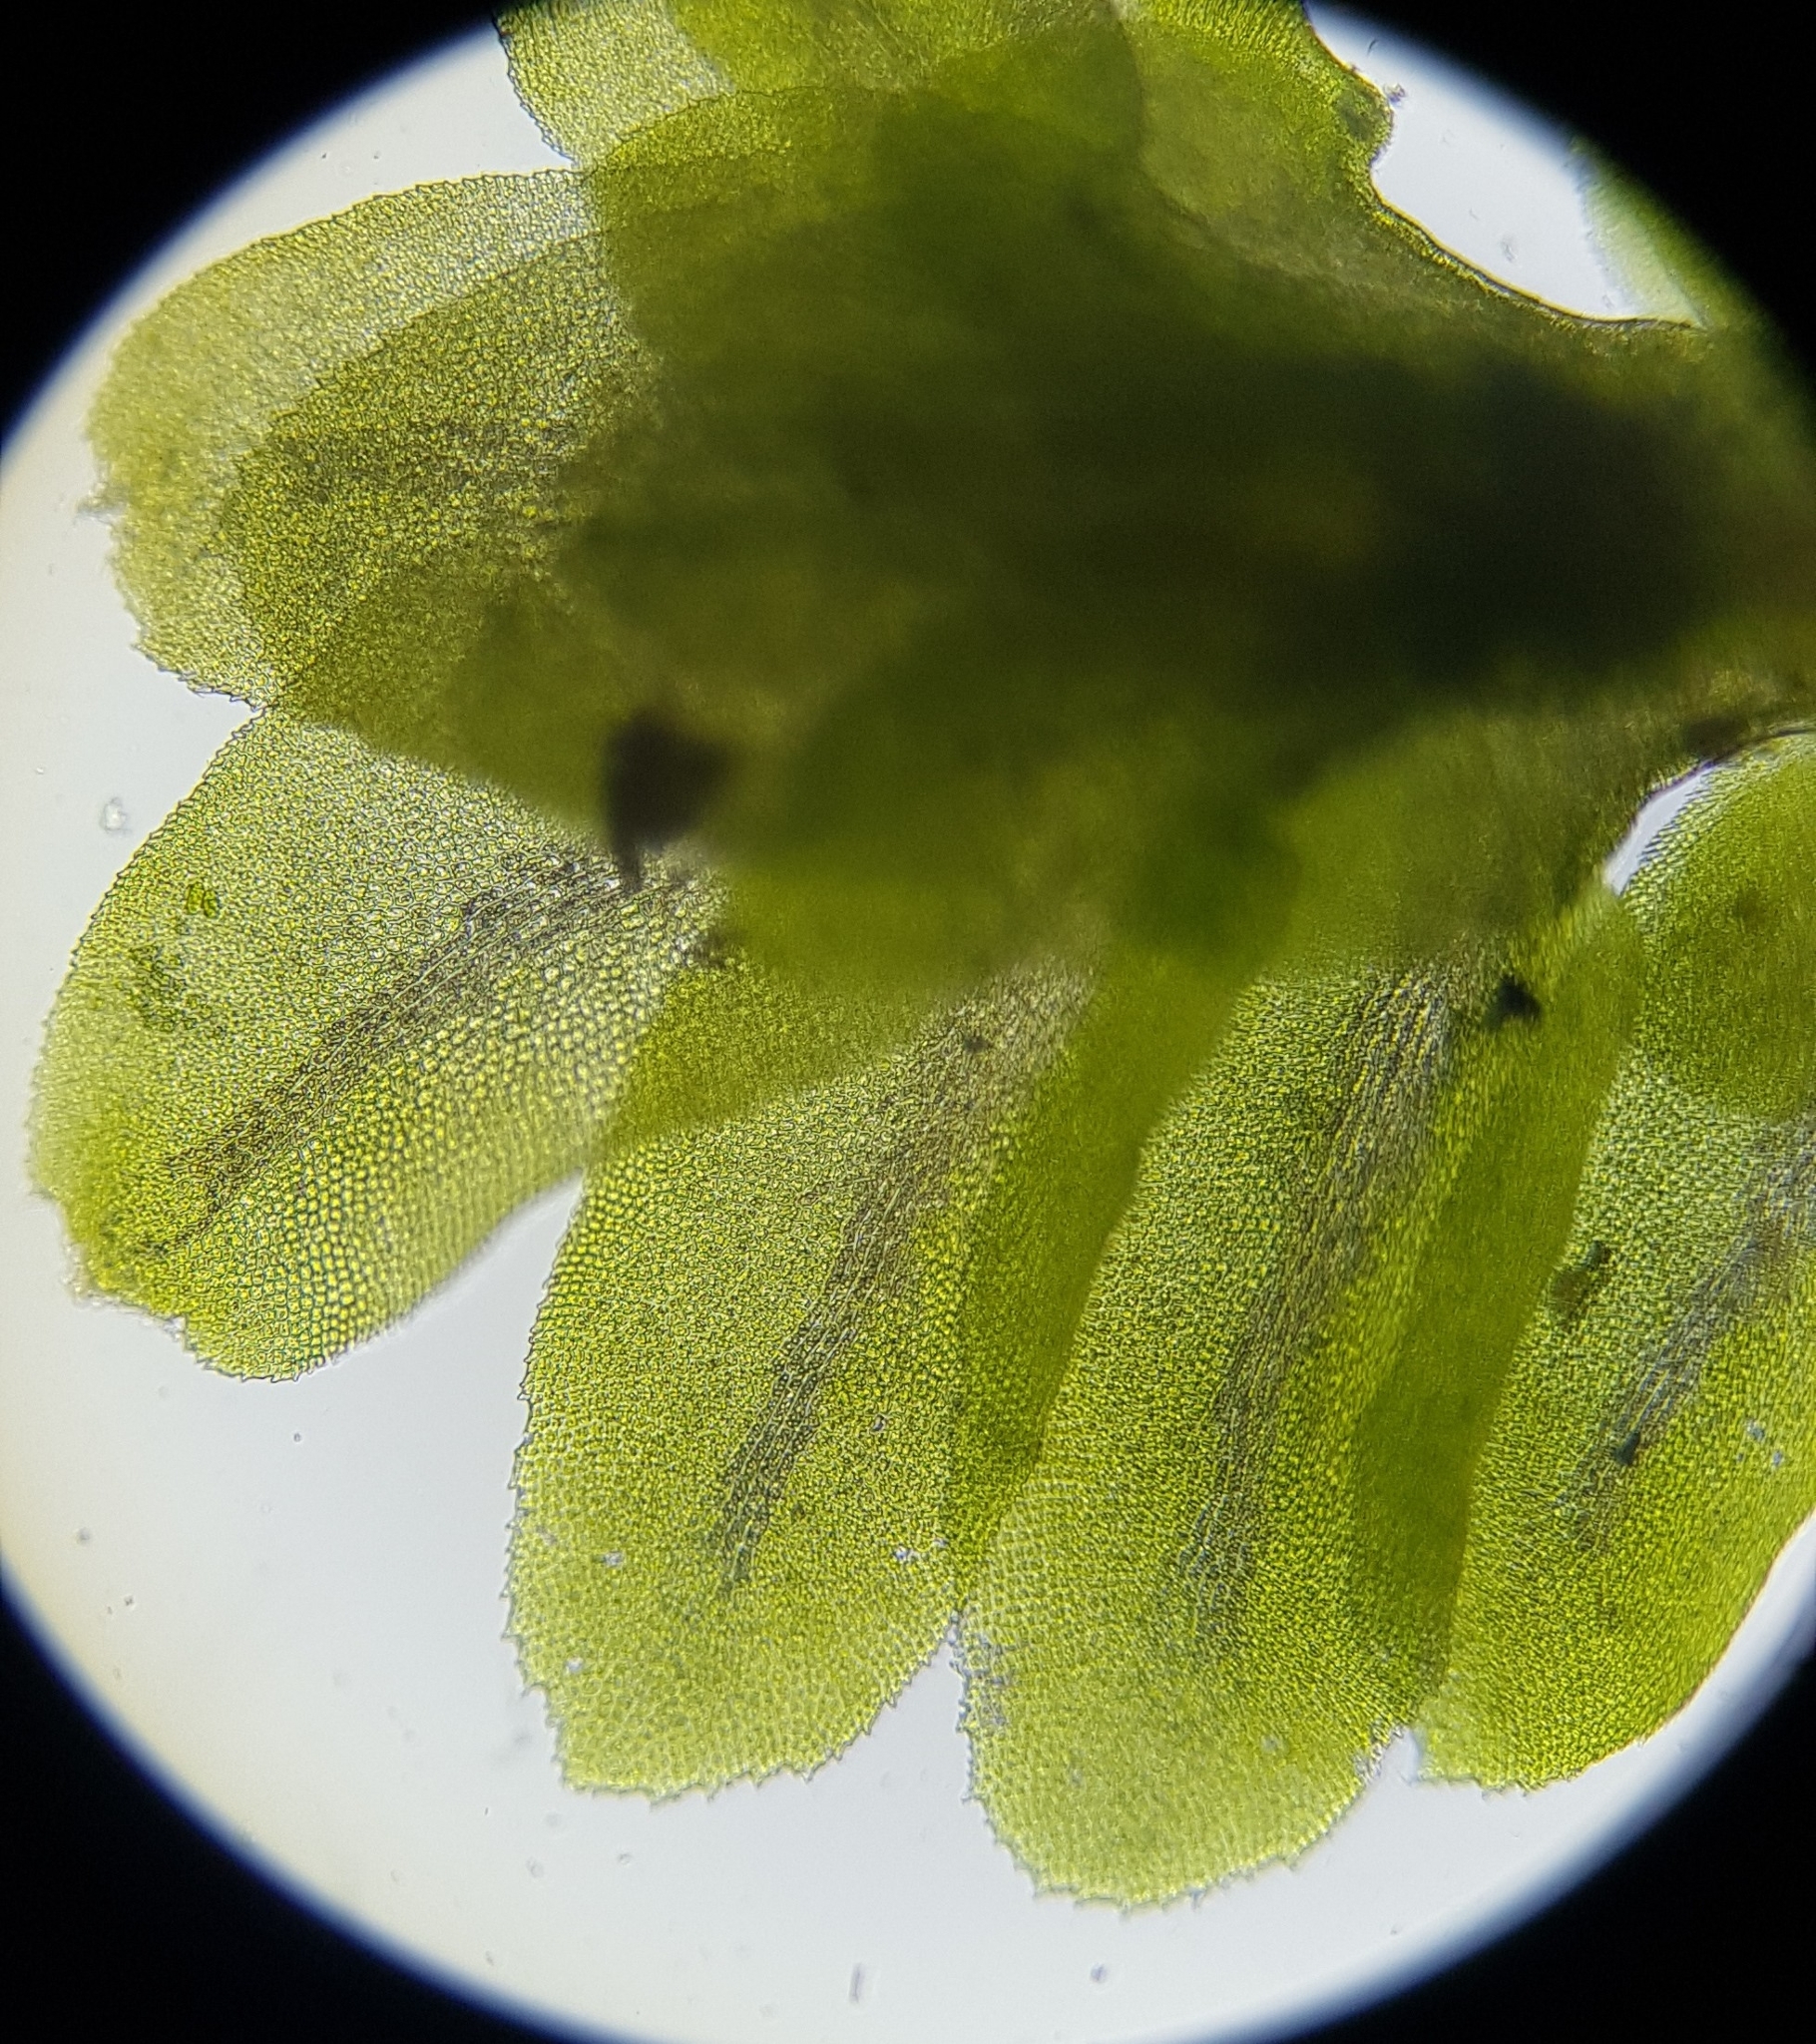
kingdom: Plantae
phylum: Marchantiophyta
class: Jungermanniopsida
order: Jungermanniales
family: Scapaniaceae
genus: Diplophyllum
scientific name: Diplophyllum albicans
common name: White earwort
